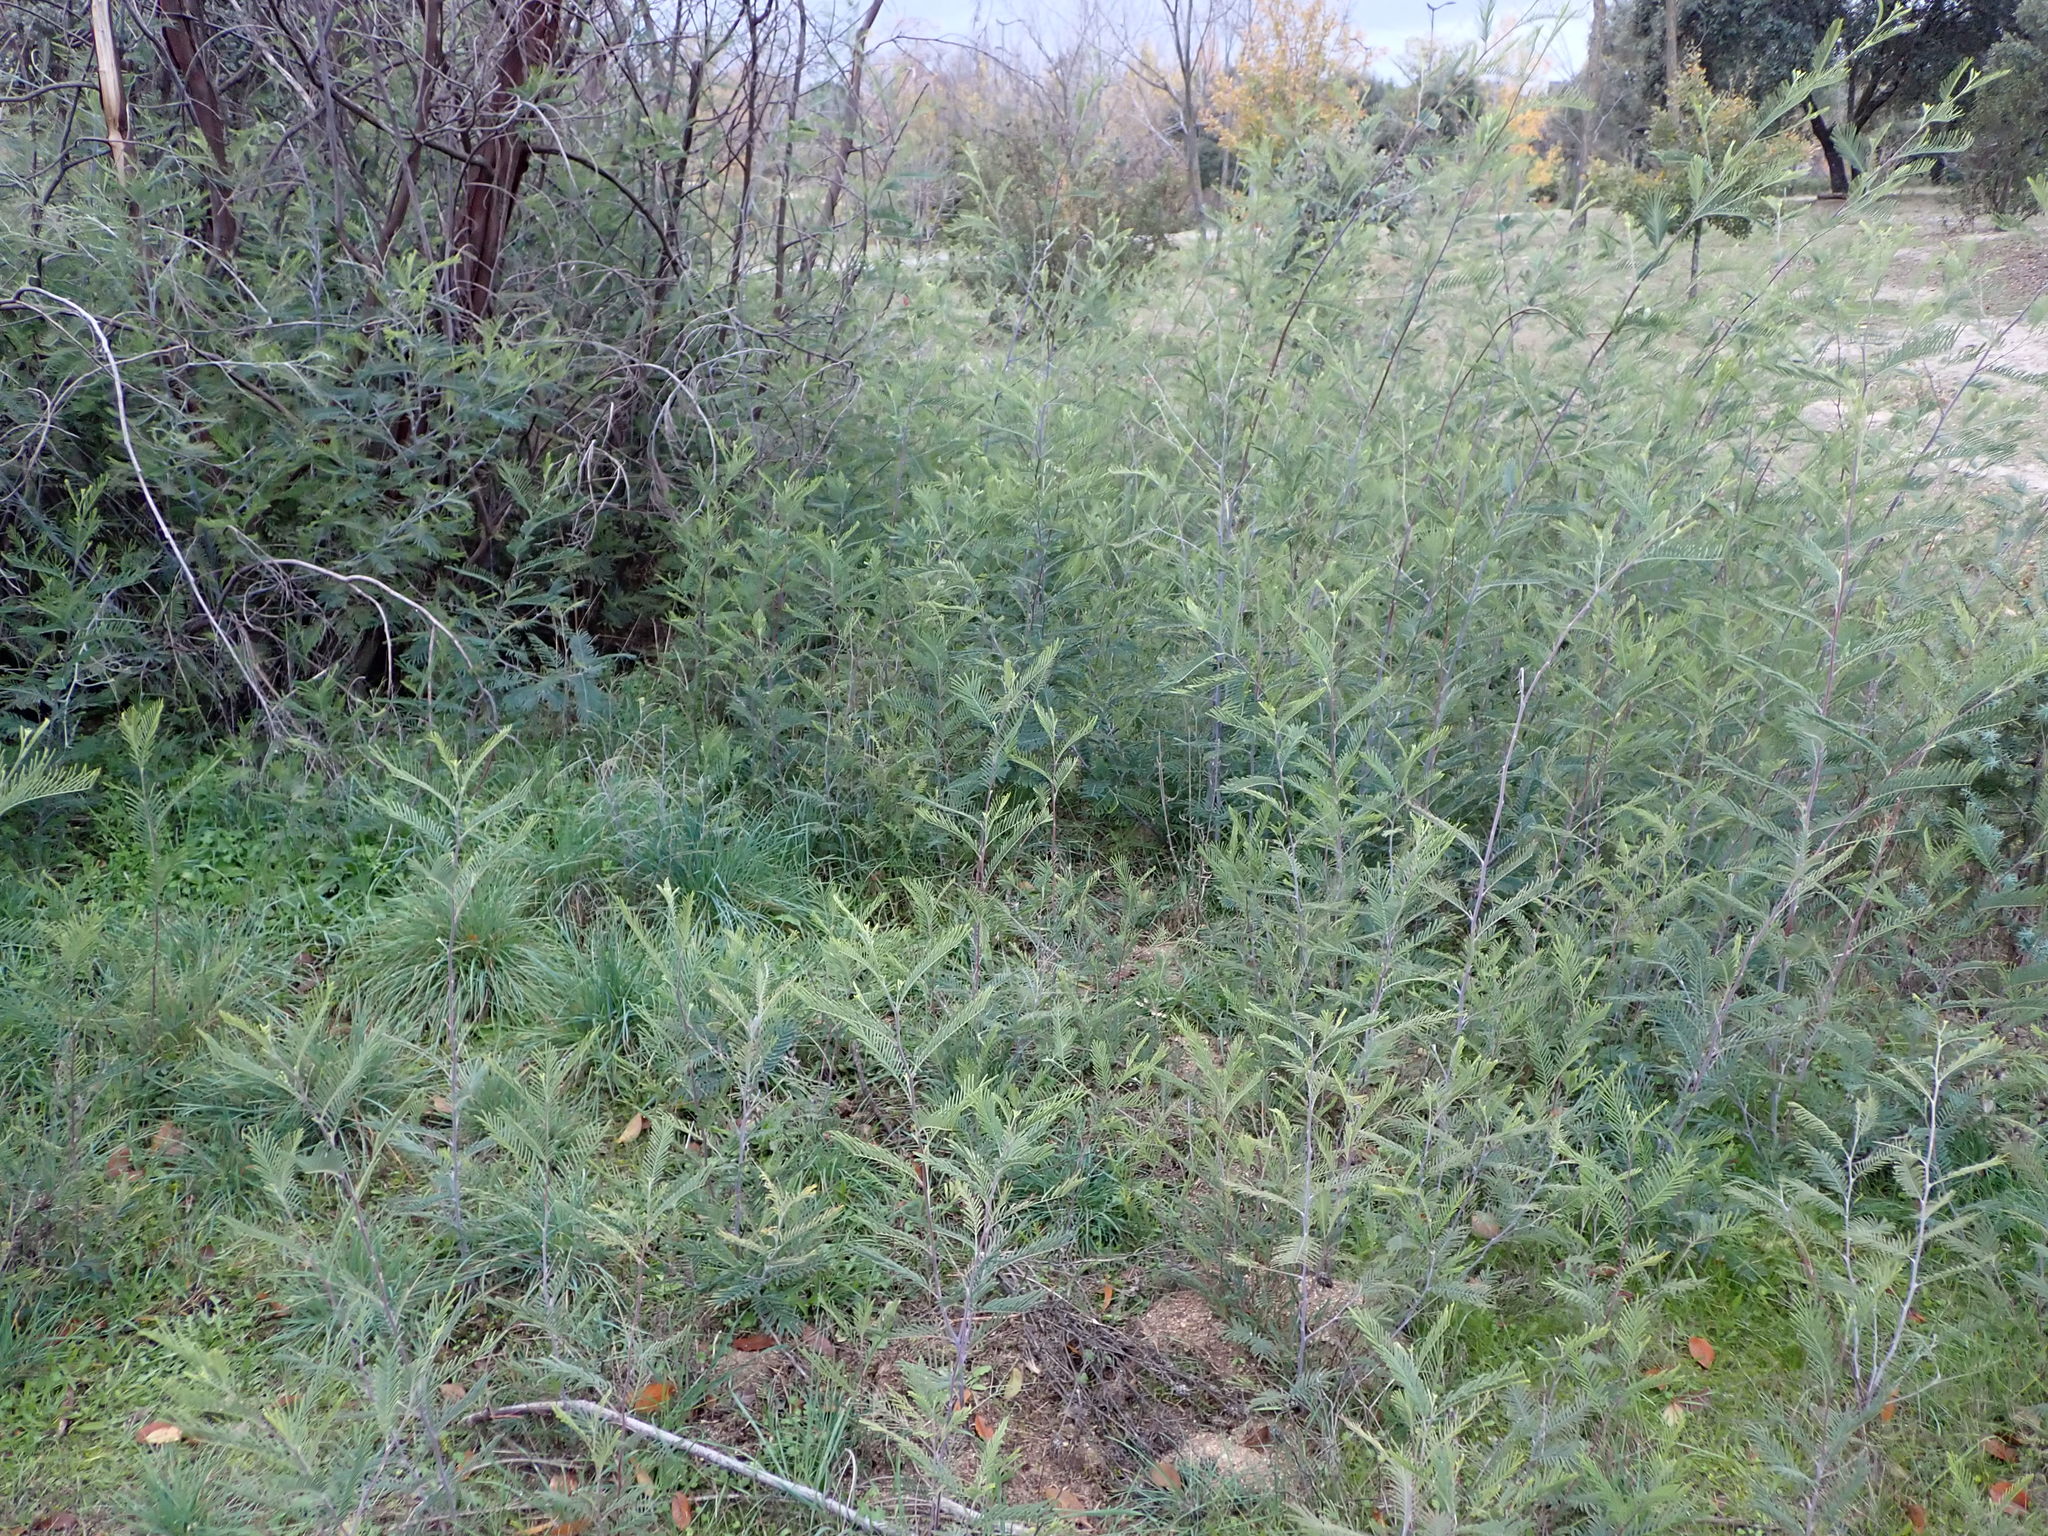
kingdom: Plantae
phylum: Tracheophyta
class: Magnoliopsida
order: Fabales
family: Fabaceae
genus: Acacia
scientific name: Acacia dealbata
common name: Silver wattle
